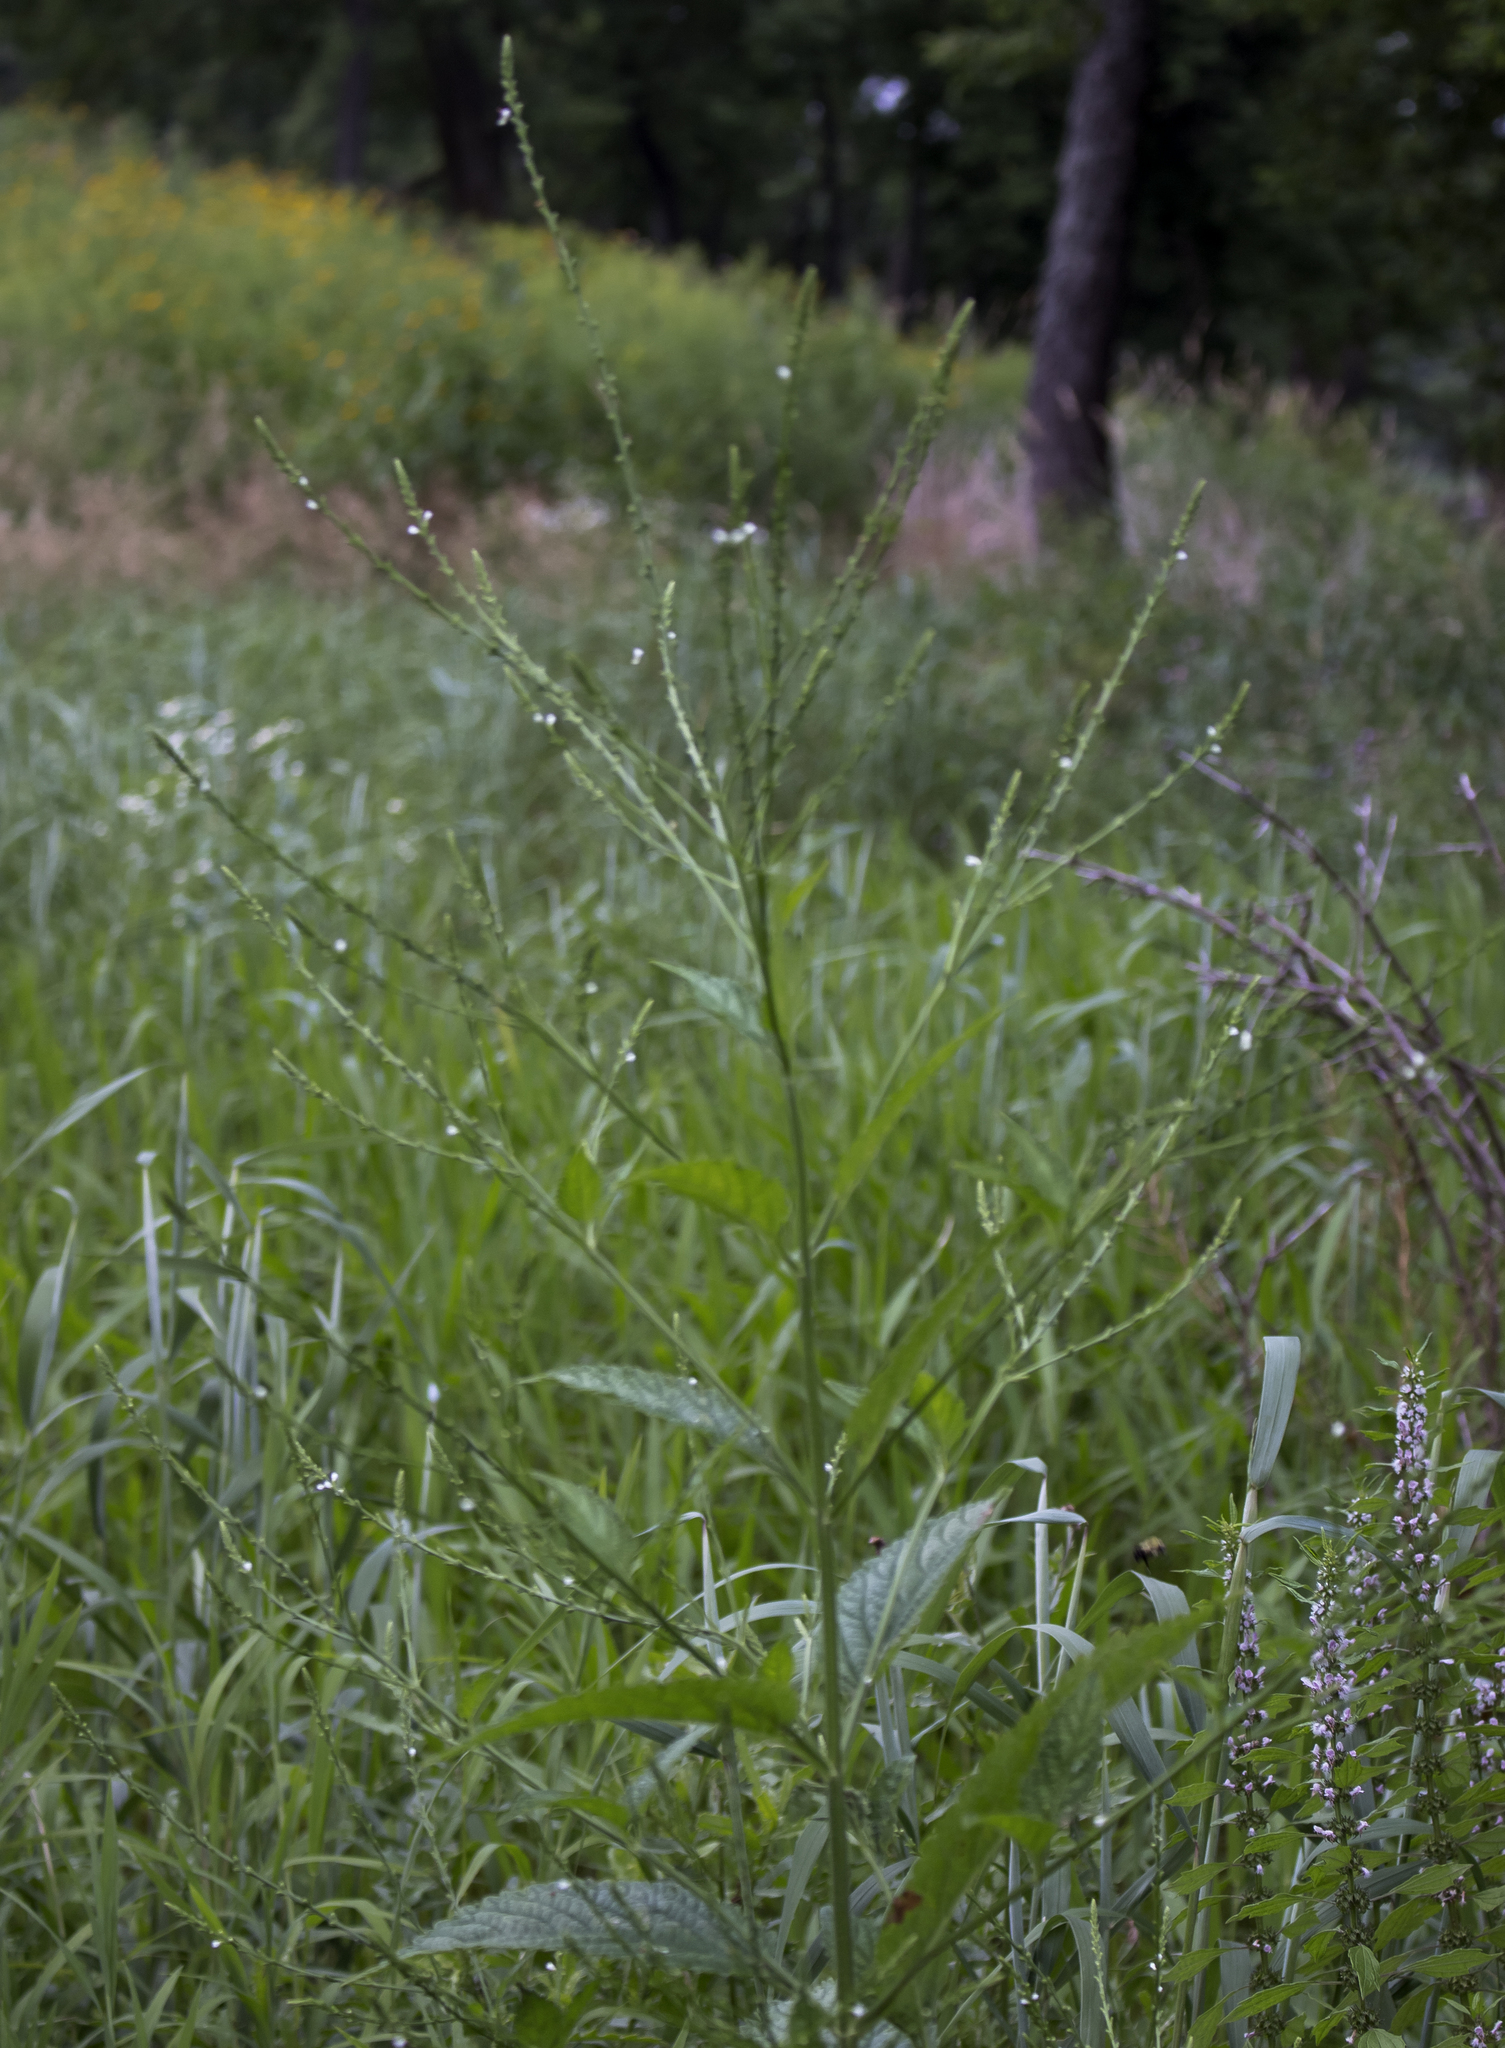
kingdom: Plantae
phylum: Tracheophyta
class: Magnoliopsida
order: Lamiales
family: Verbenaceae
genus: Verbena
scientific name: Verbena urticifolia
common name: Nettle-leaved vervain
